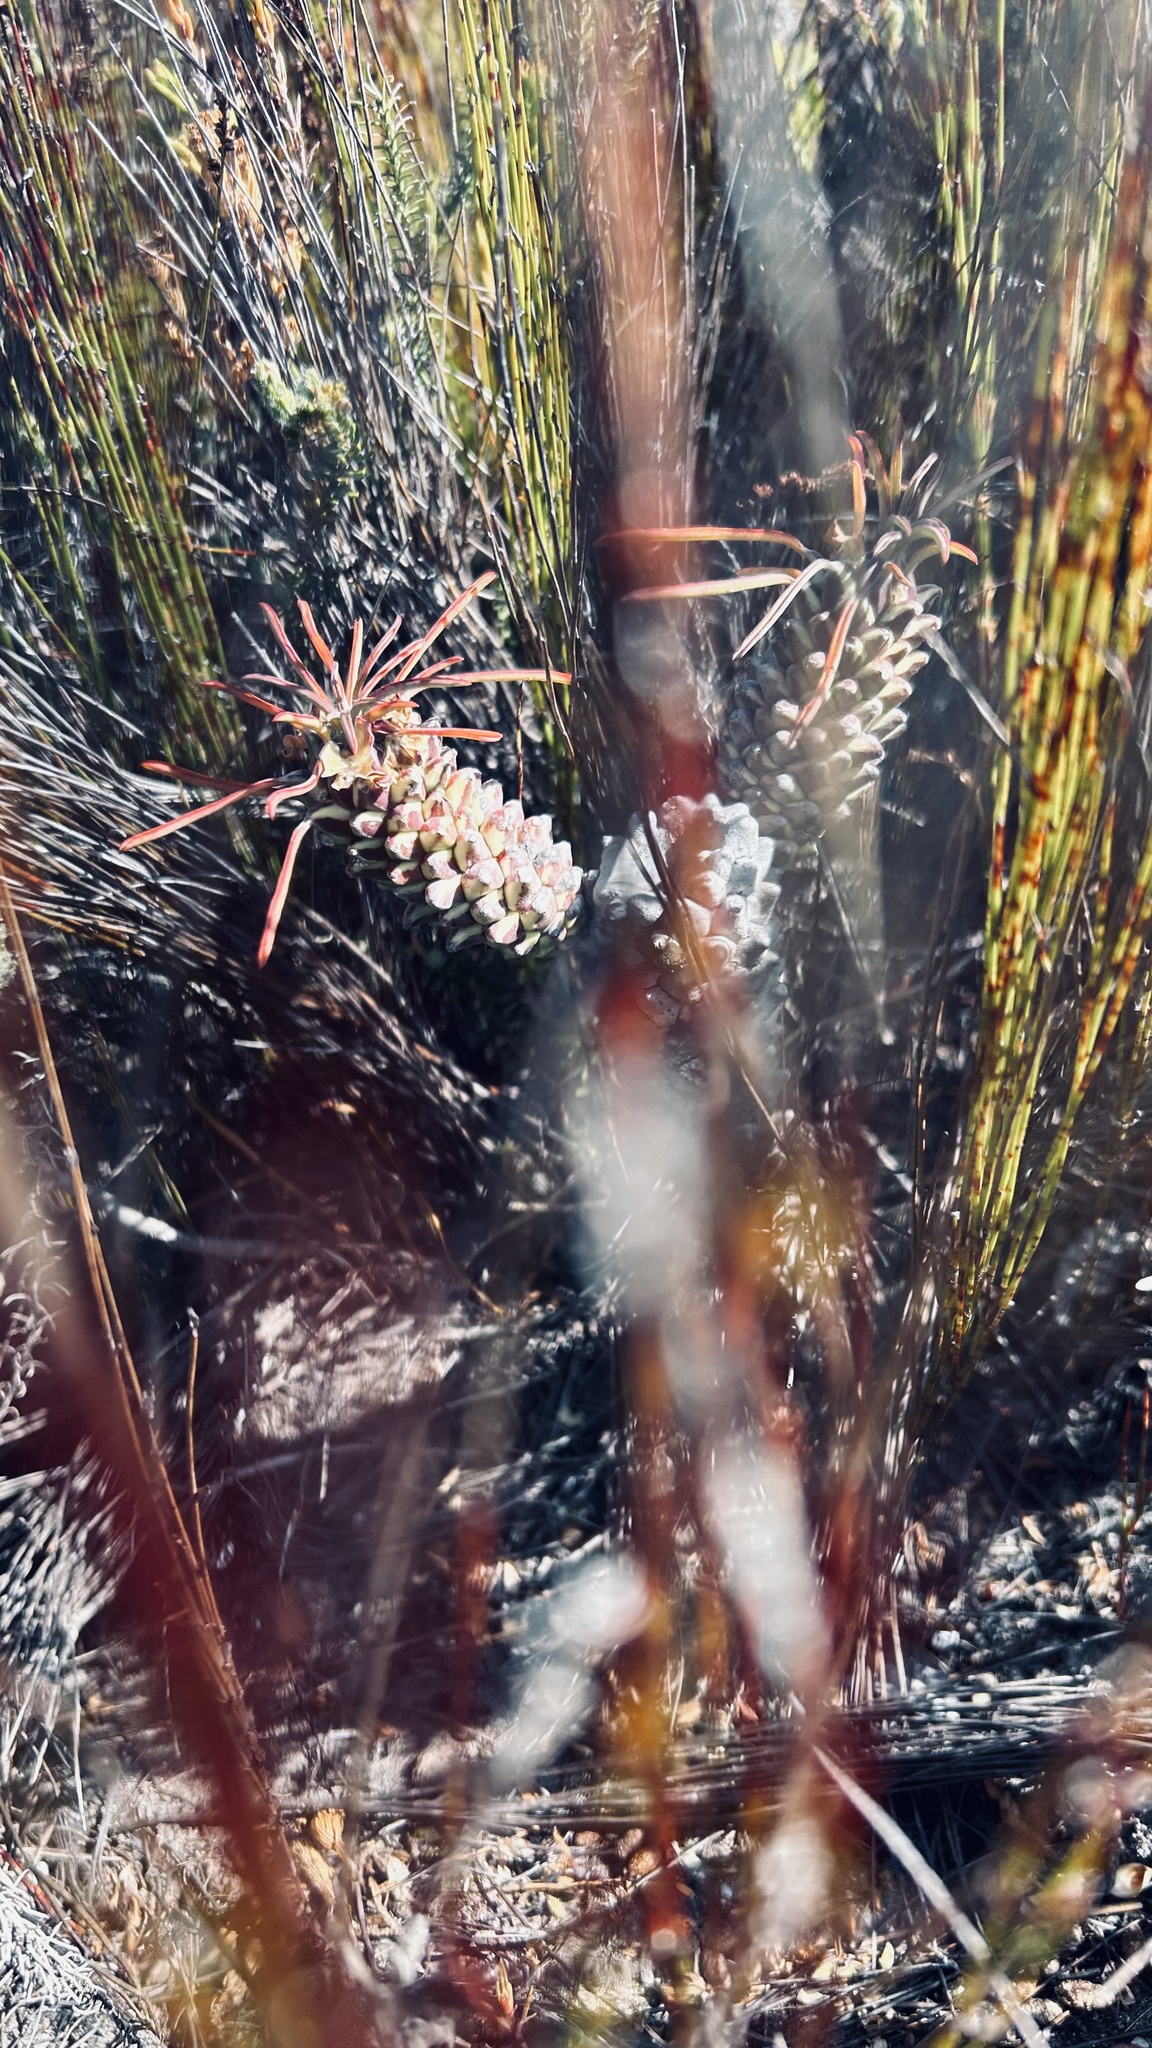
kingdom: Plantae
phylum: Tracheophyta
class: Magnoliopsida
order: Malpighiales
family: Euphorbiaceae
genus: Euphorbia
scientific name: Euphorbia clandestina
